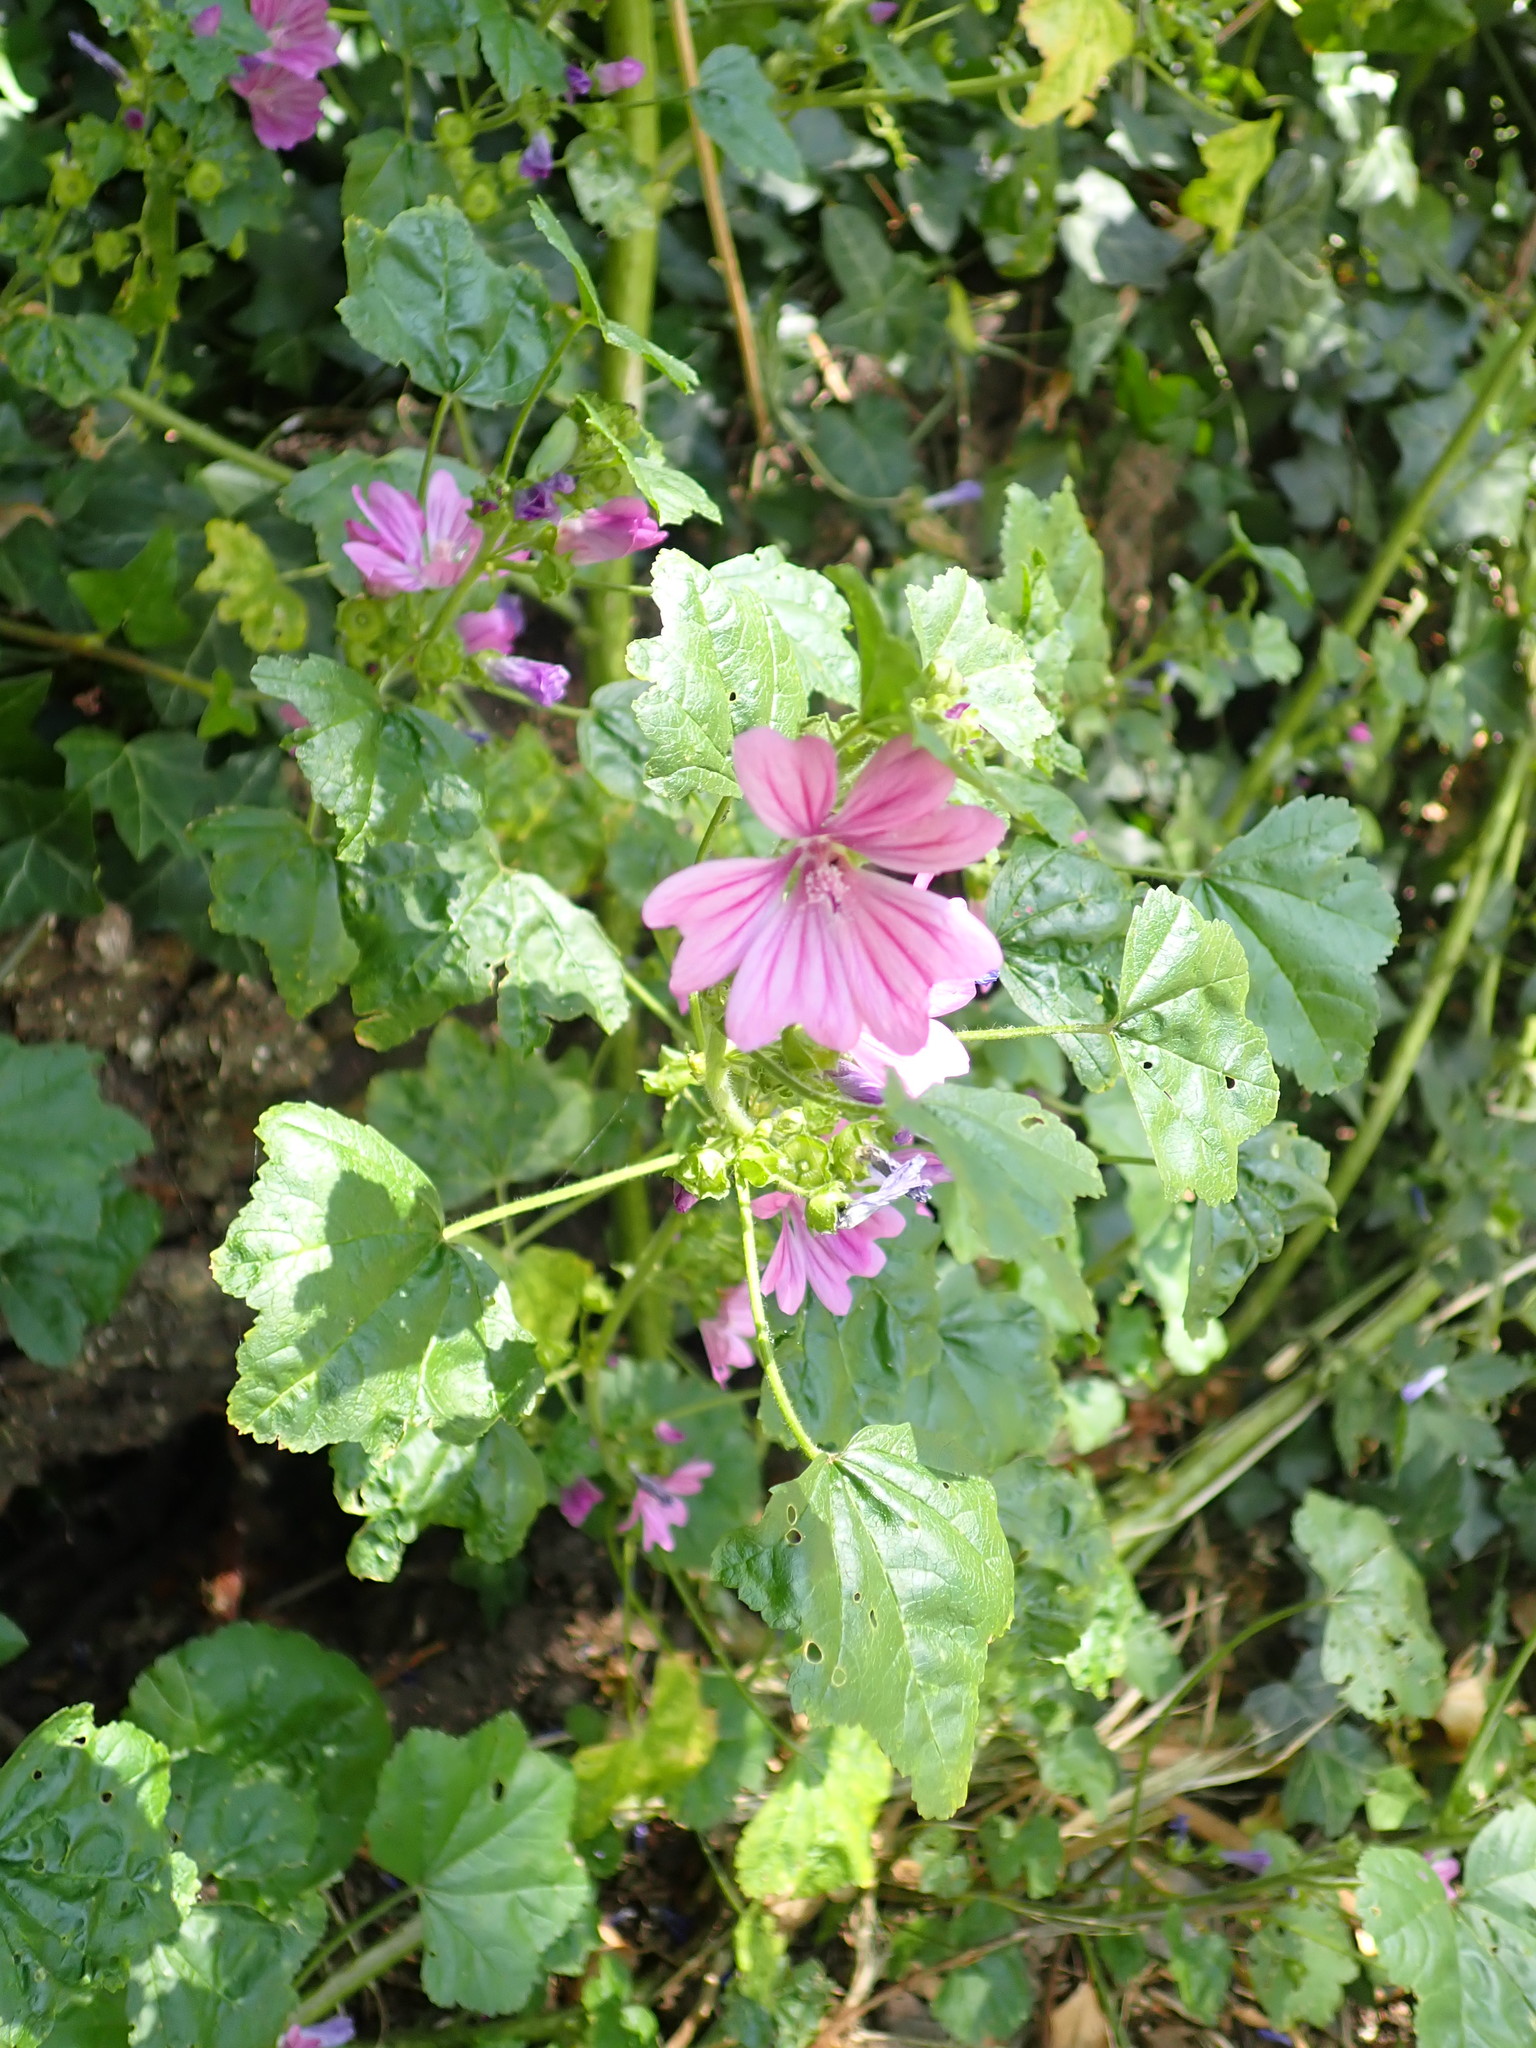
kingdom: Plantae
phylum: Tracheophyta
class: Magnoliopsida
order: Malvales
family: Malvaceae
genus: Malva
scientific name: Malva sylvestris
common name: Common mallow
